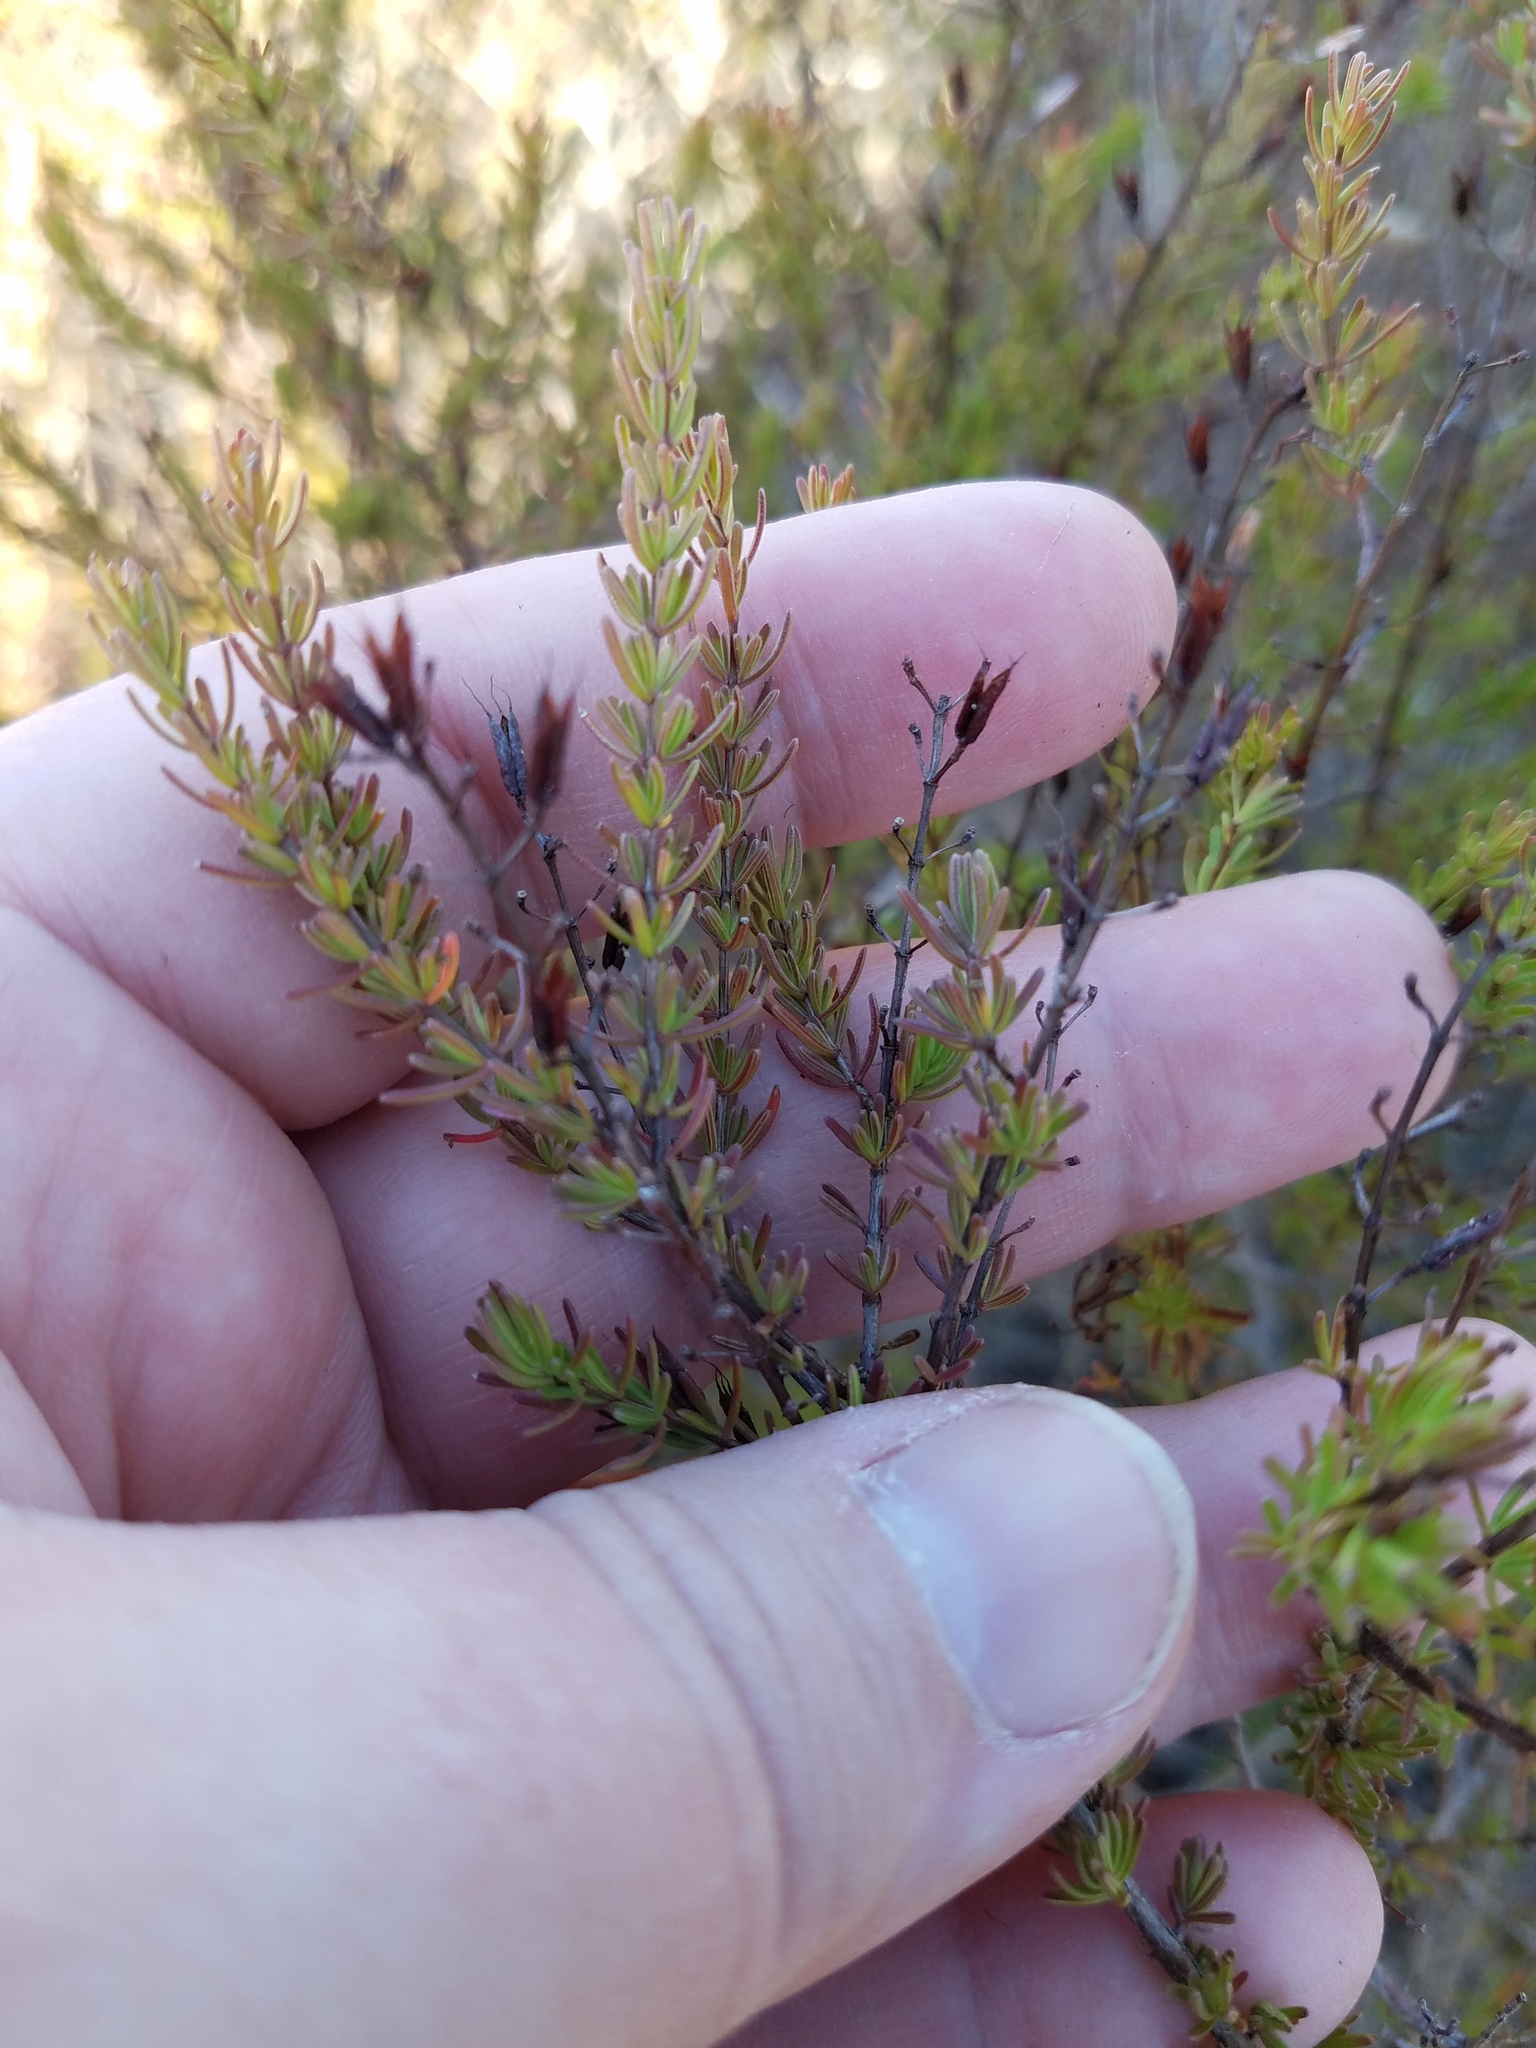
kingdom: Plantae
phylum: Tracheophyta
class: Magnoliopsida
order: Malpighiales
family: Hypericaceae
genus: Hypericum
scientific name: Hypericum tenuifolium
